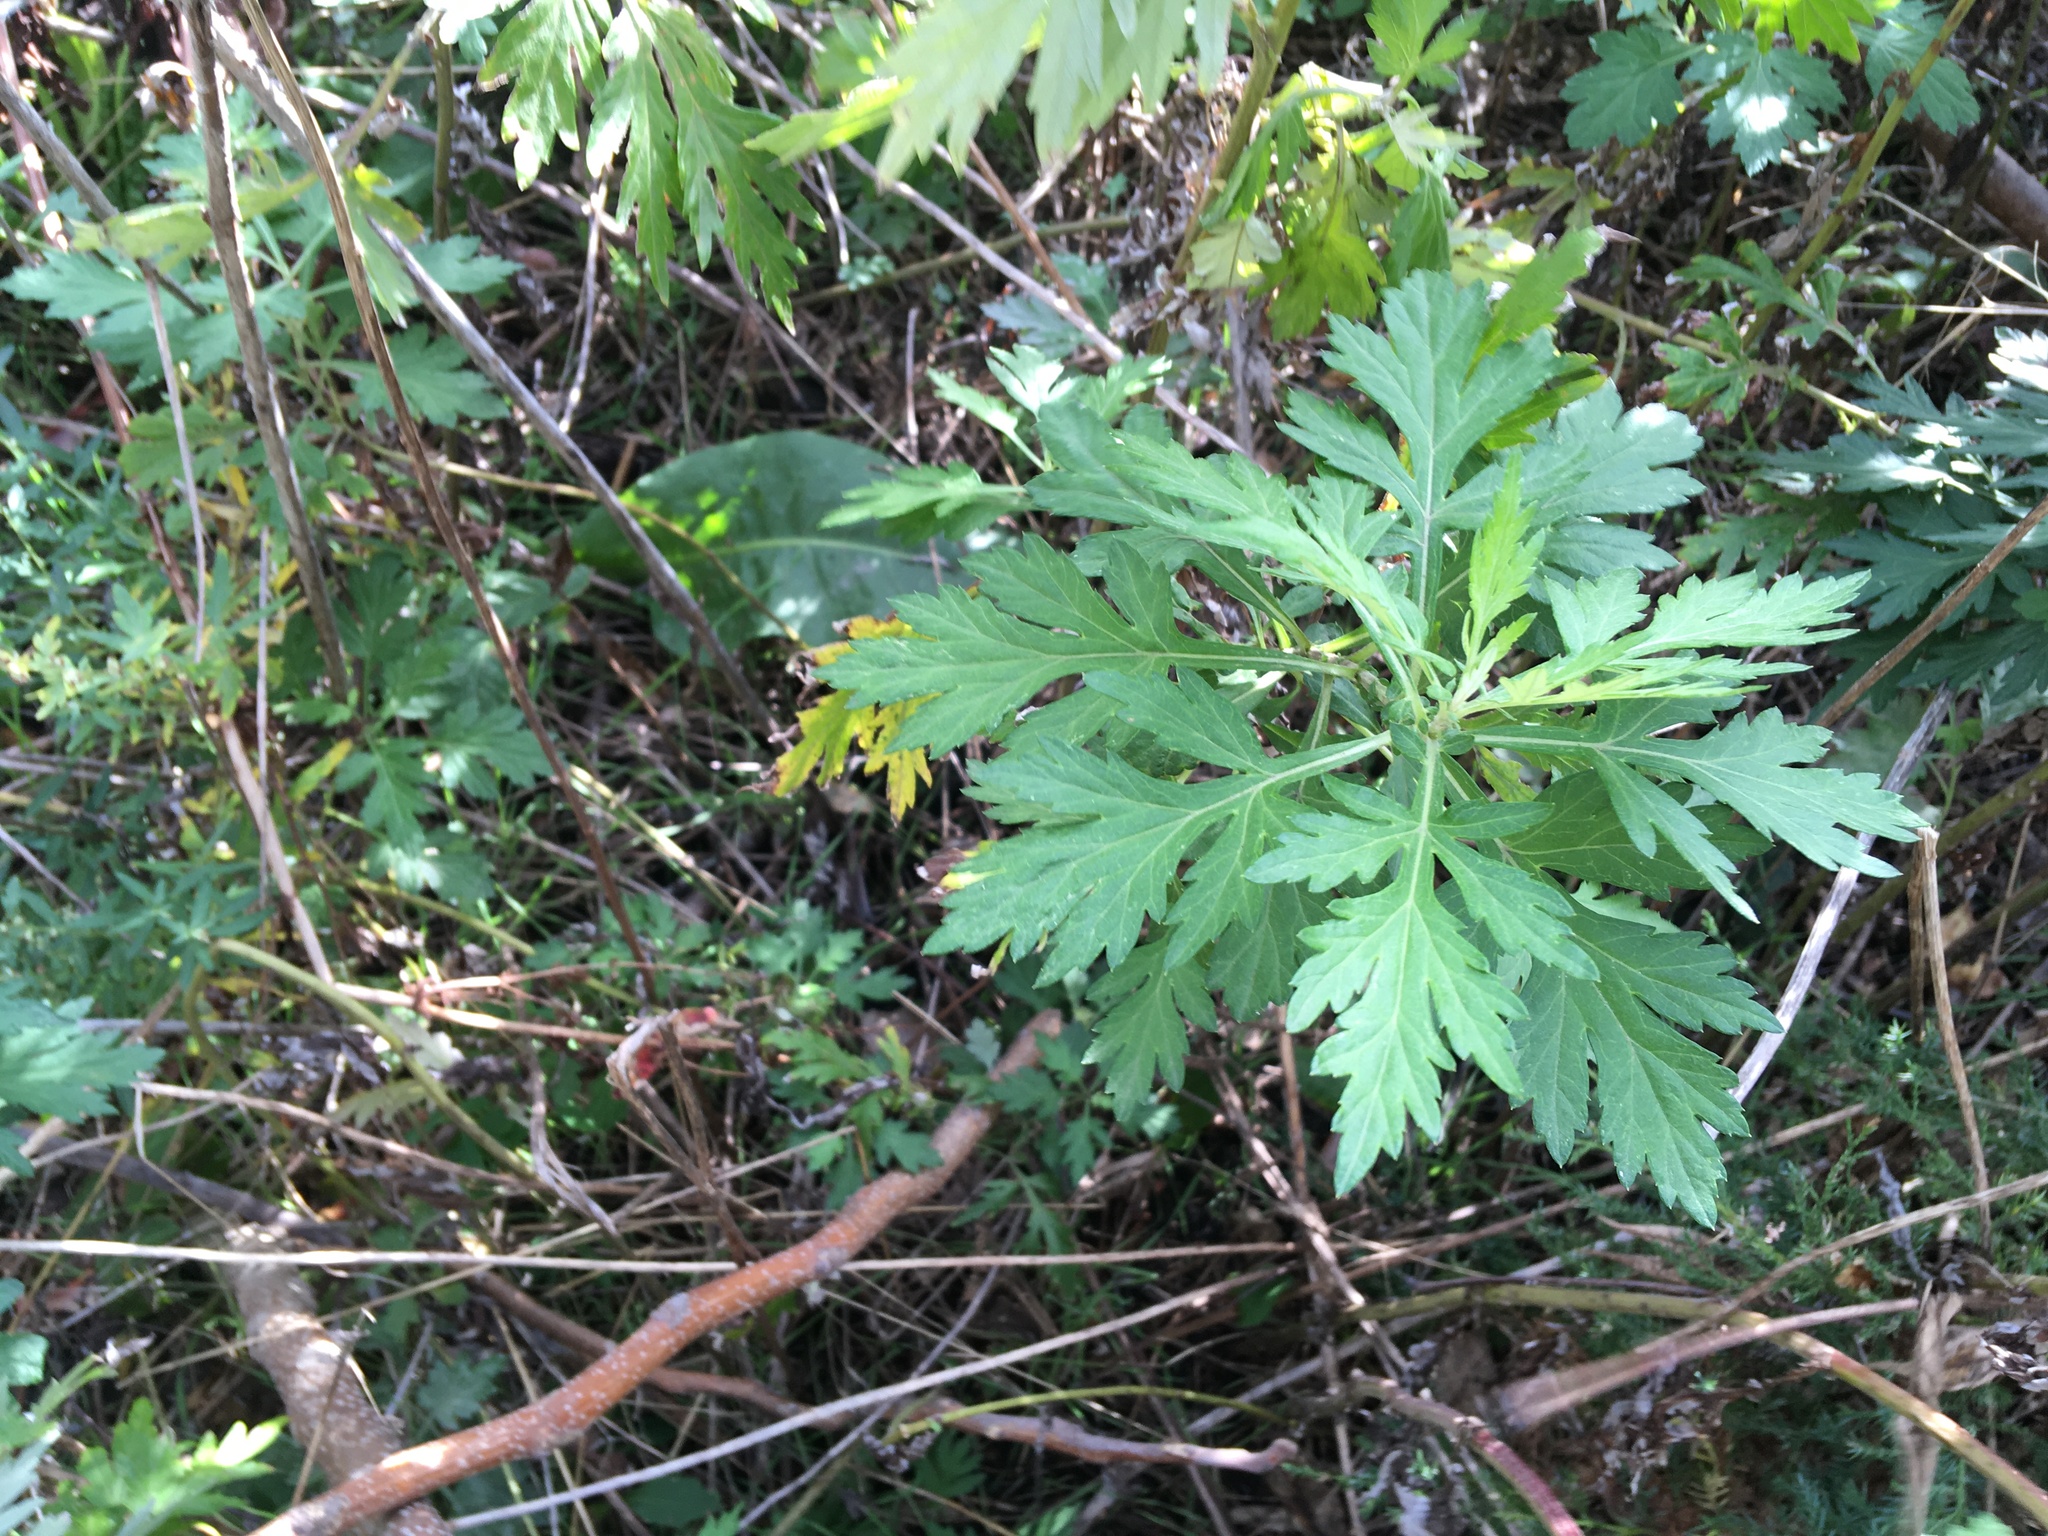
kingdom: Plantae
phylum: Tracheophyta
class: Magnoliopsida
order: Asterales
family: Asteraceae
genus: Artemisia
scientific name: Artemisia vulgaris
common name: Mugwort
